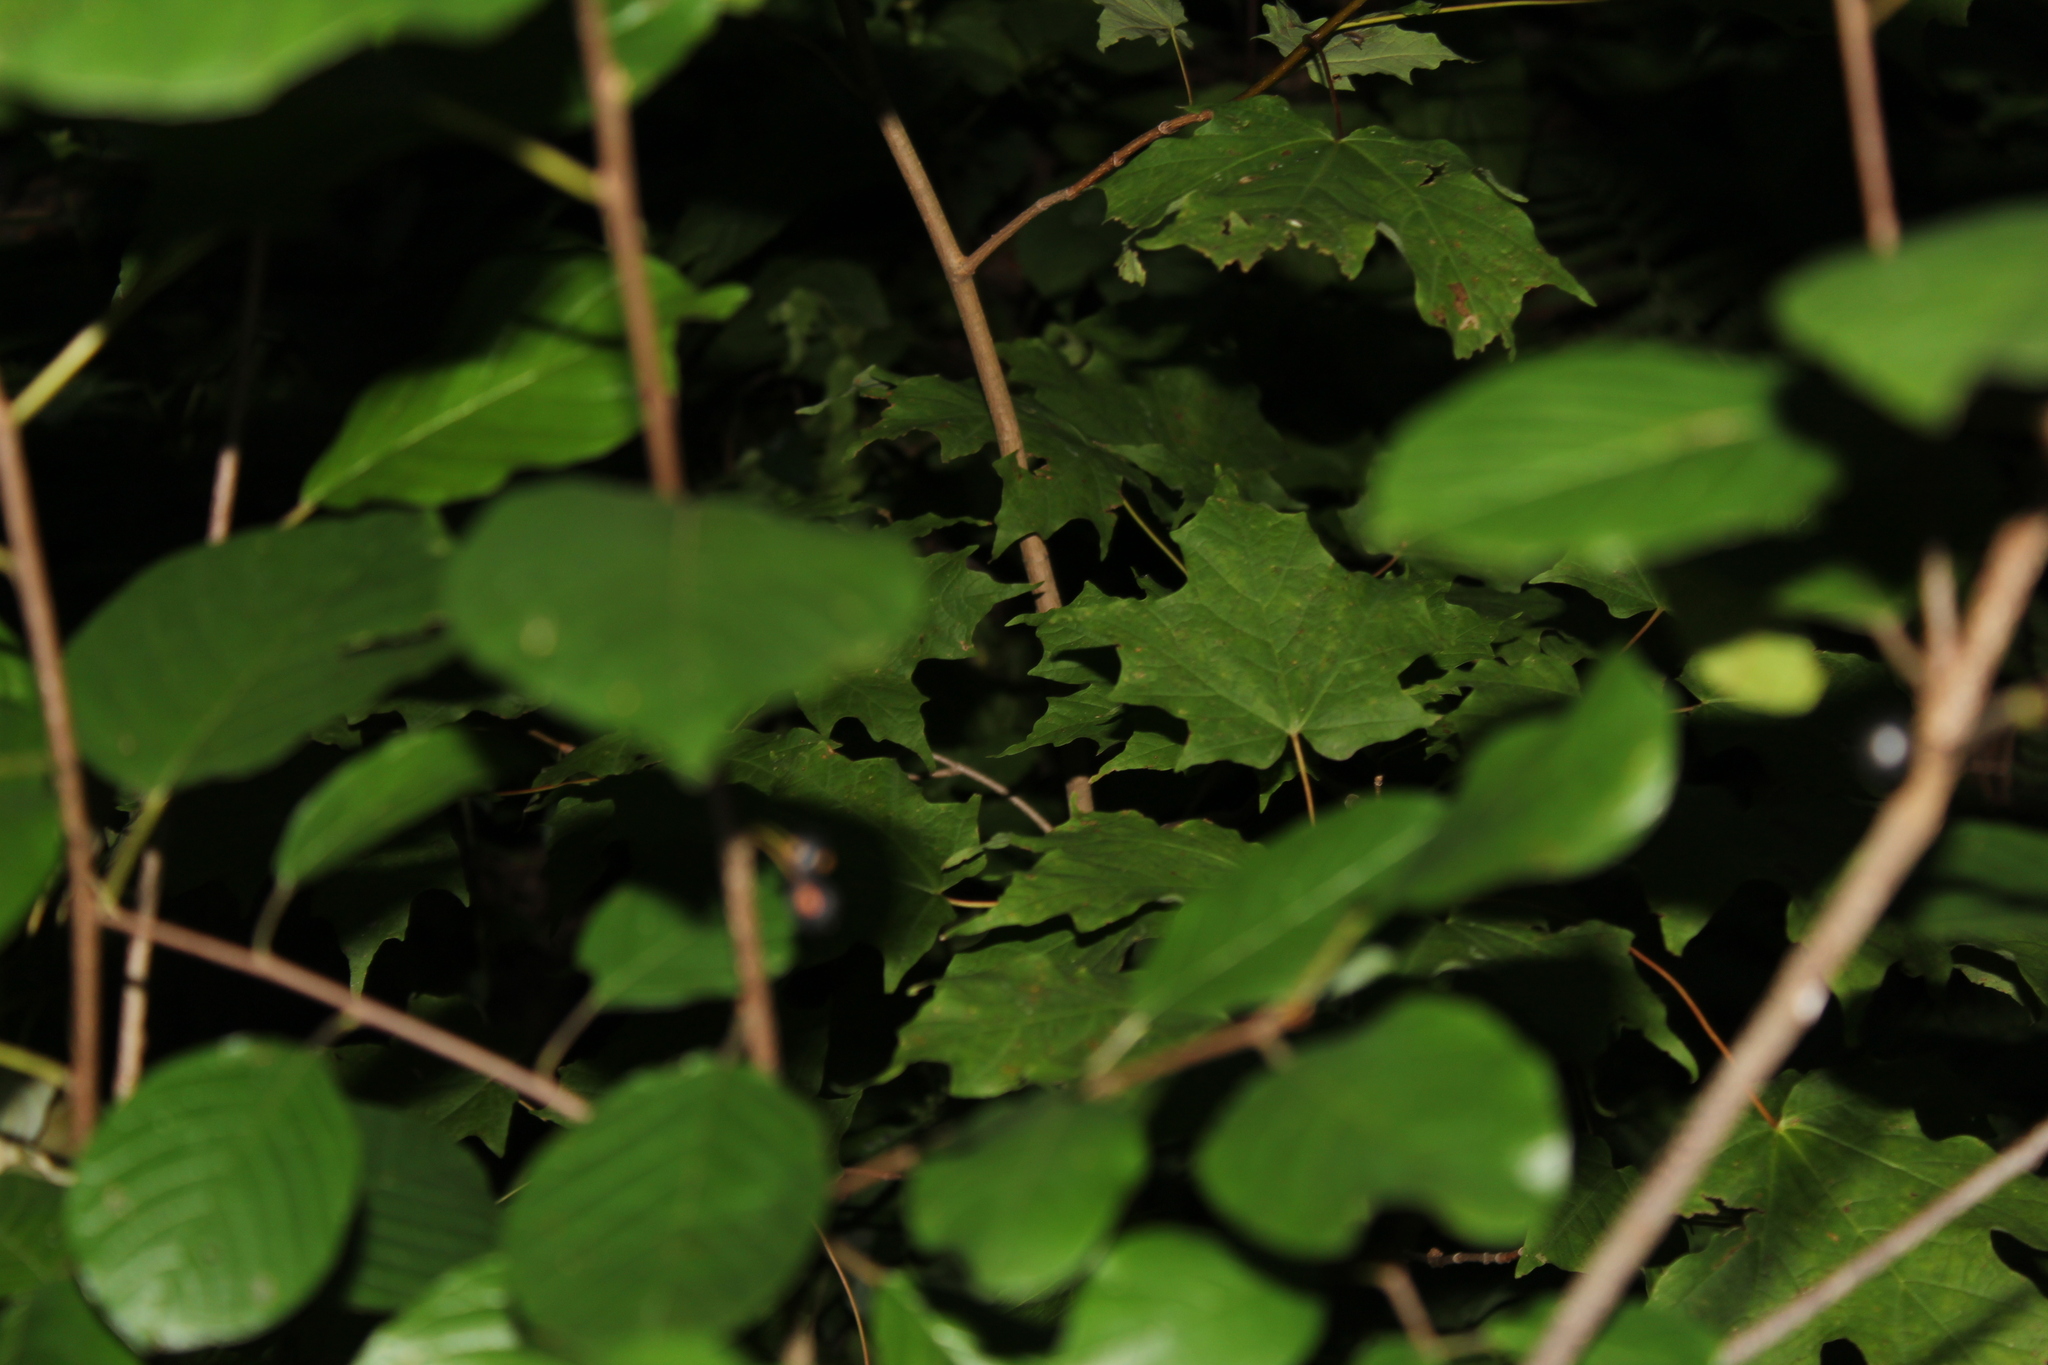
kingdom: Plantae
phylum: Tracheophyta
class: Magnoliopsida
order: Rosales
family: Rhamnaceae
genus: Frangula
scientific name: Frangula alnus
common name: Alder buckthorn
